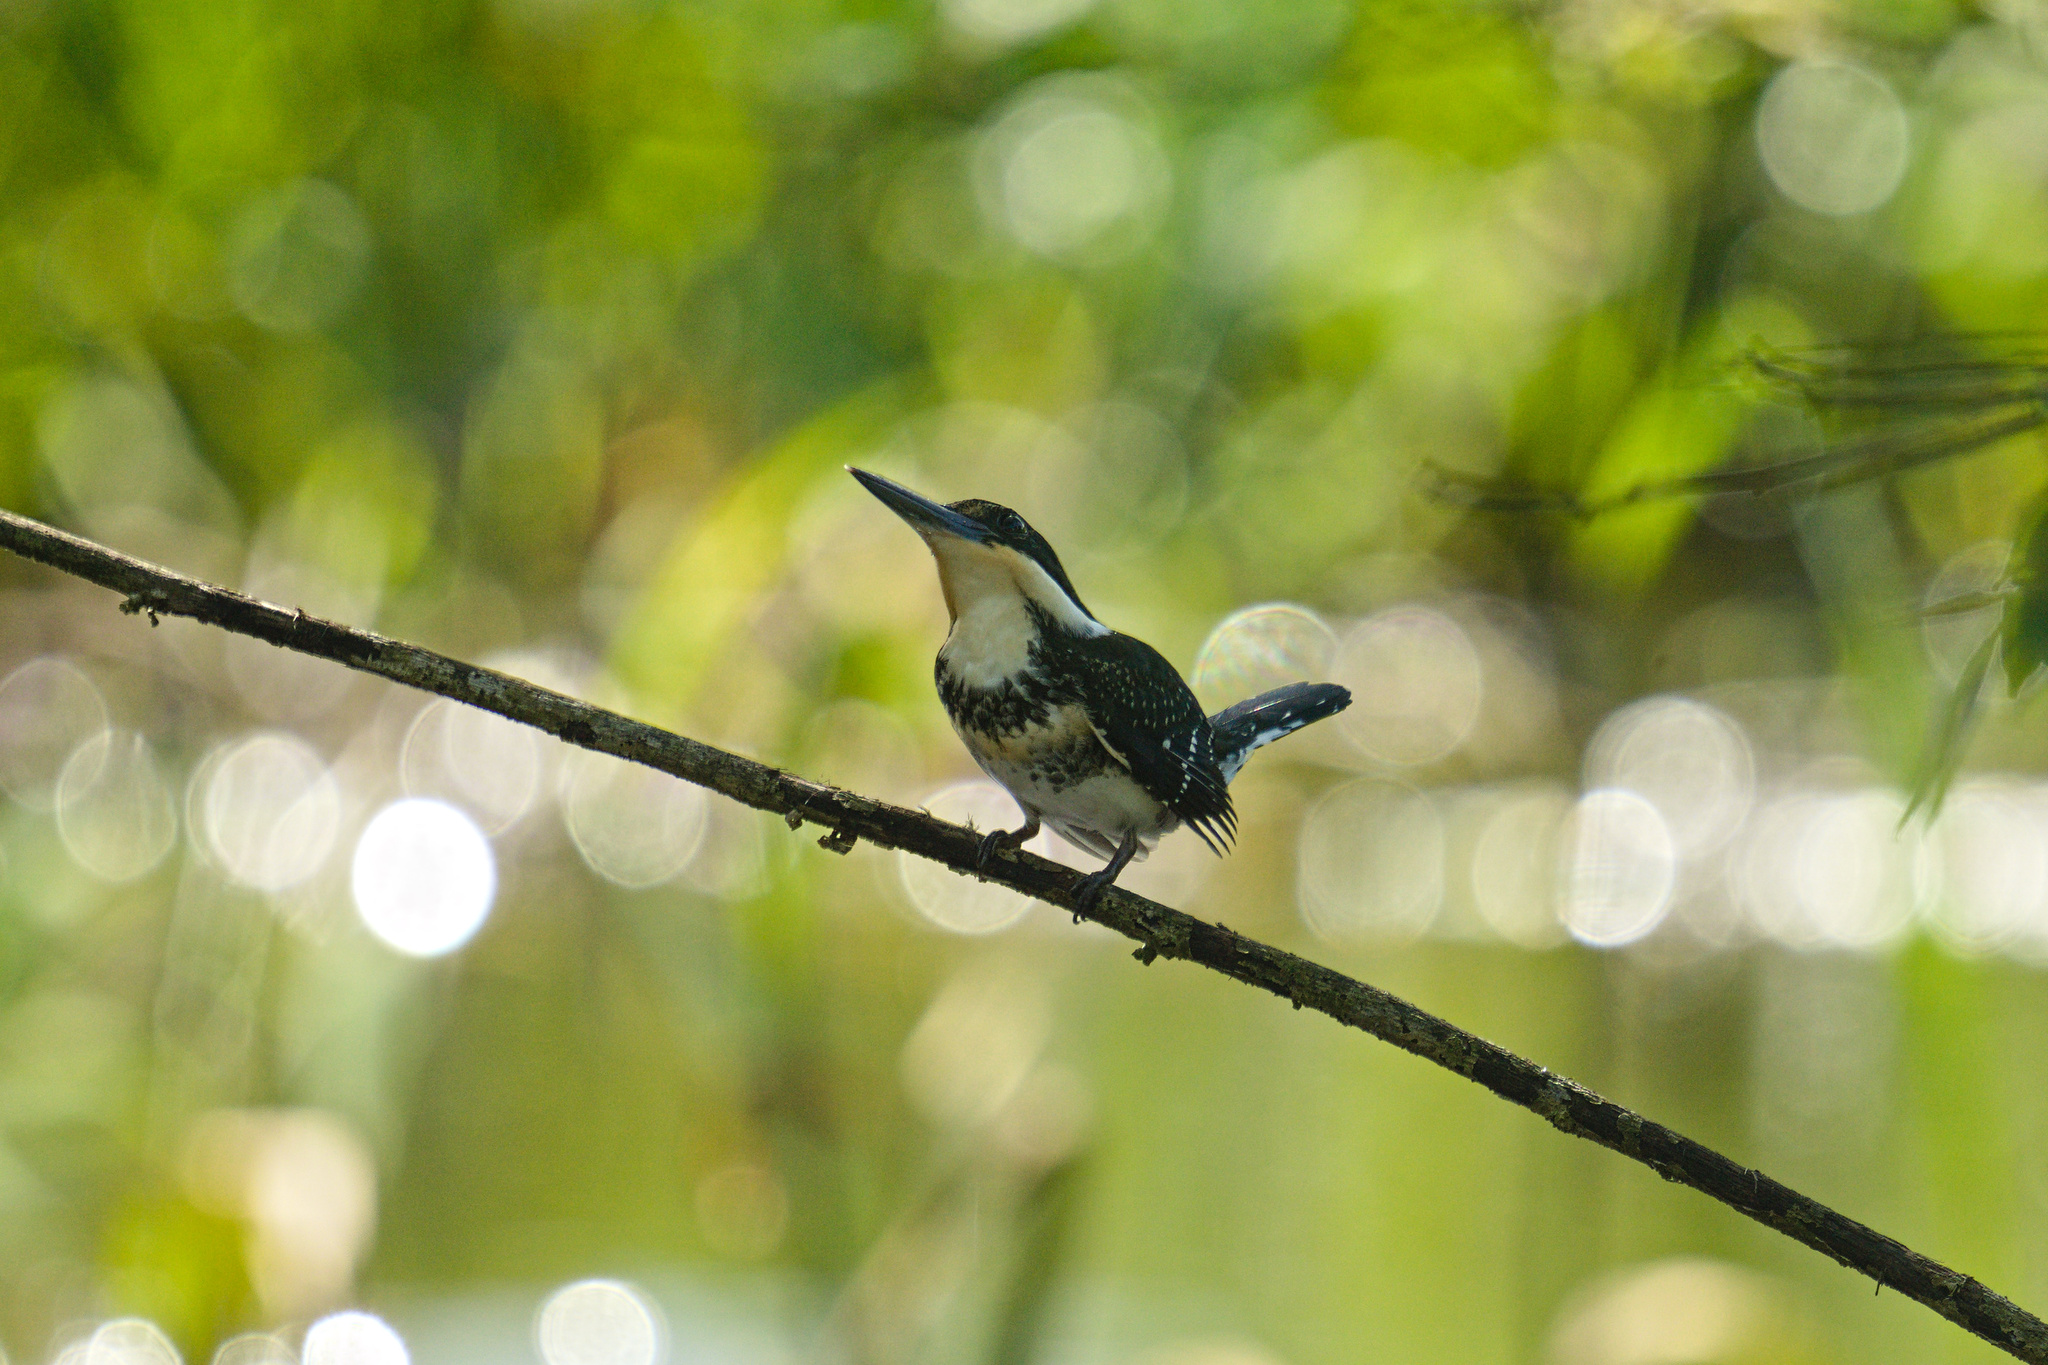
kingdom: Animalia
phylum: Chordata
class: Aves
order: Coraciiformes
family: Alcedinidae
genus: Chloroceryle
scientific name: Chloroceryle americana
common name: Green kingfisher
